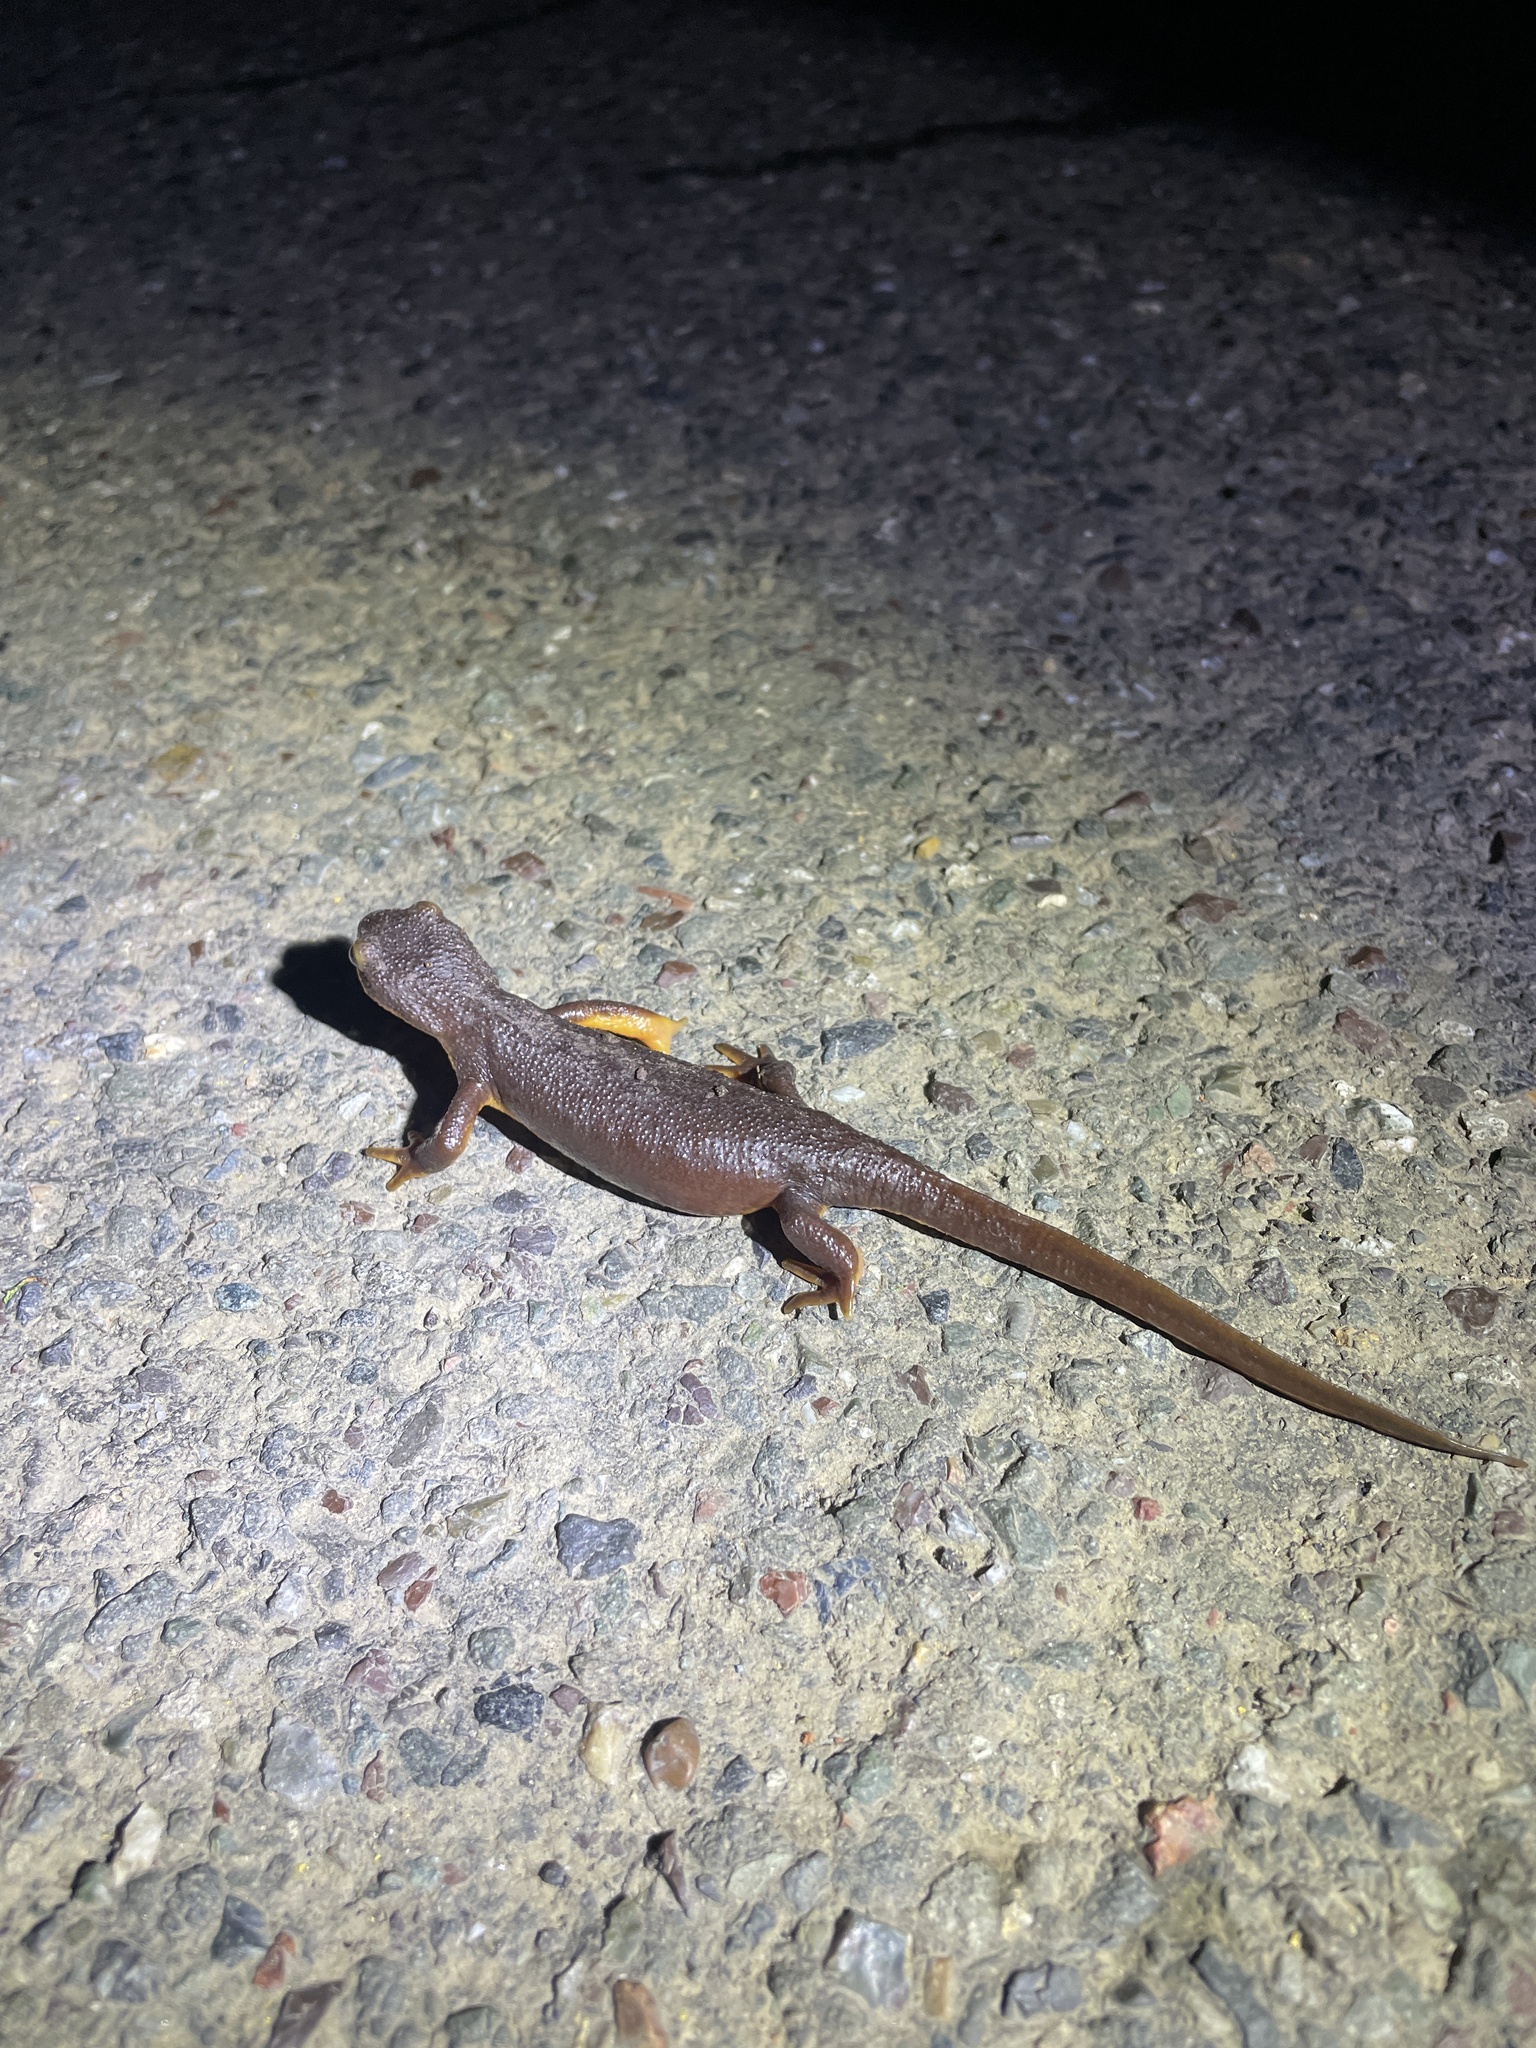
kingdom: Animalia
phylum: Chordata
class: Amphibia
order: Caudata
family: Salamandridae
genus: Taricha
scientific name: Taricha torosa
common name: California newt
